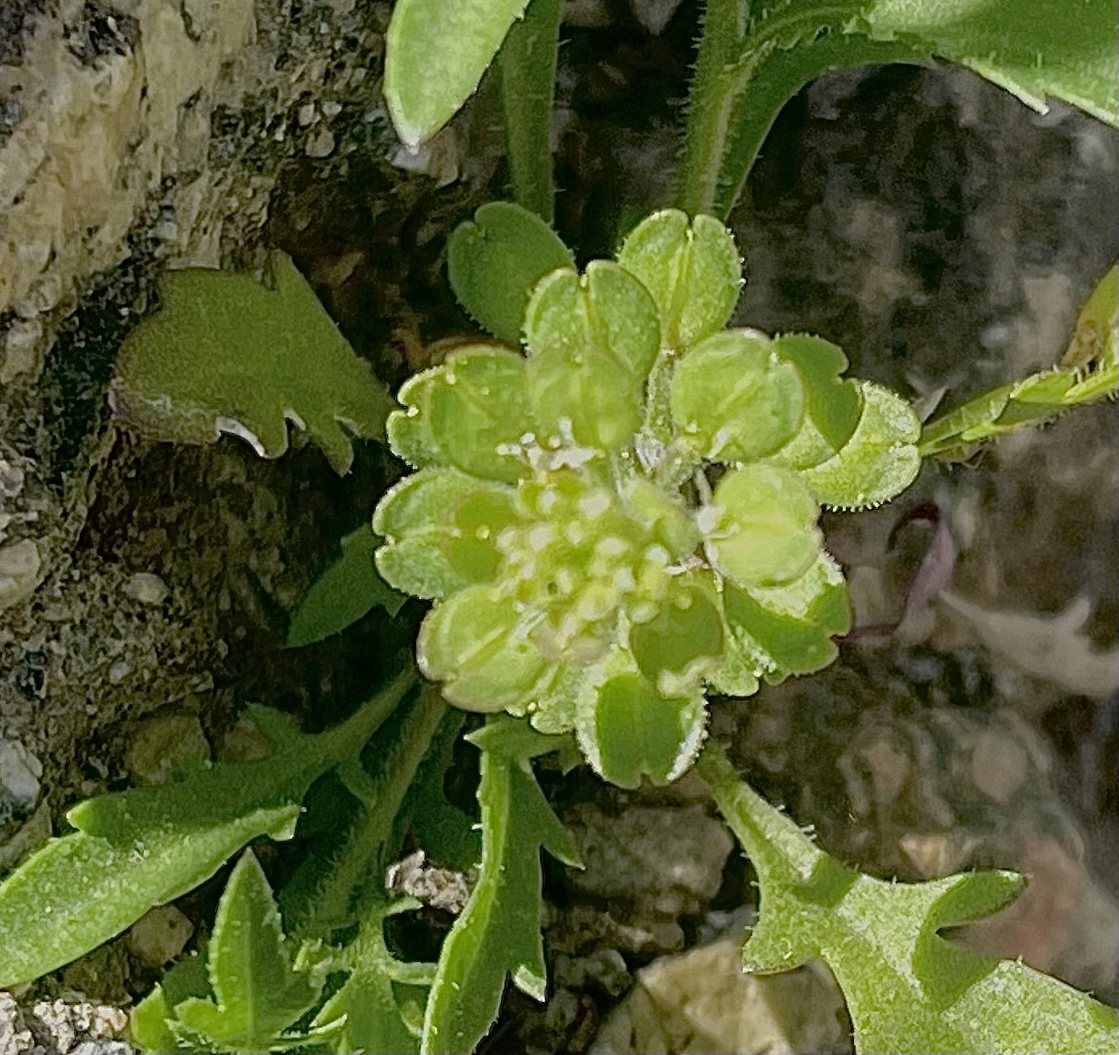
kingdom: Plantae
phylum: Tracheophyta
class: Magnoliopsida
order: Brassicales
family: Brassicaceae
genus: Lepidium
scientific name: Lepidium lasiocarpum
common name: Hairy-pod pepperwort
